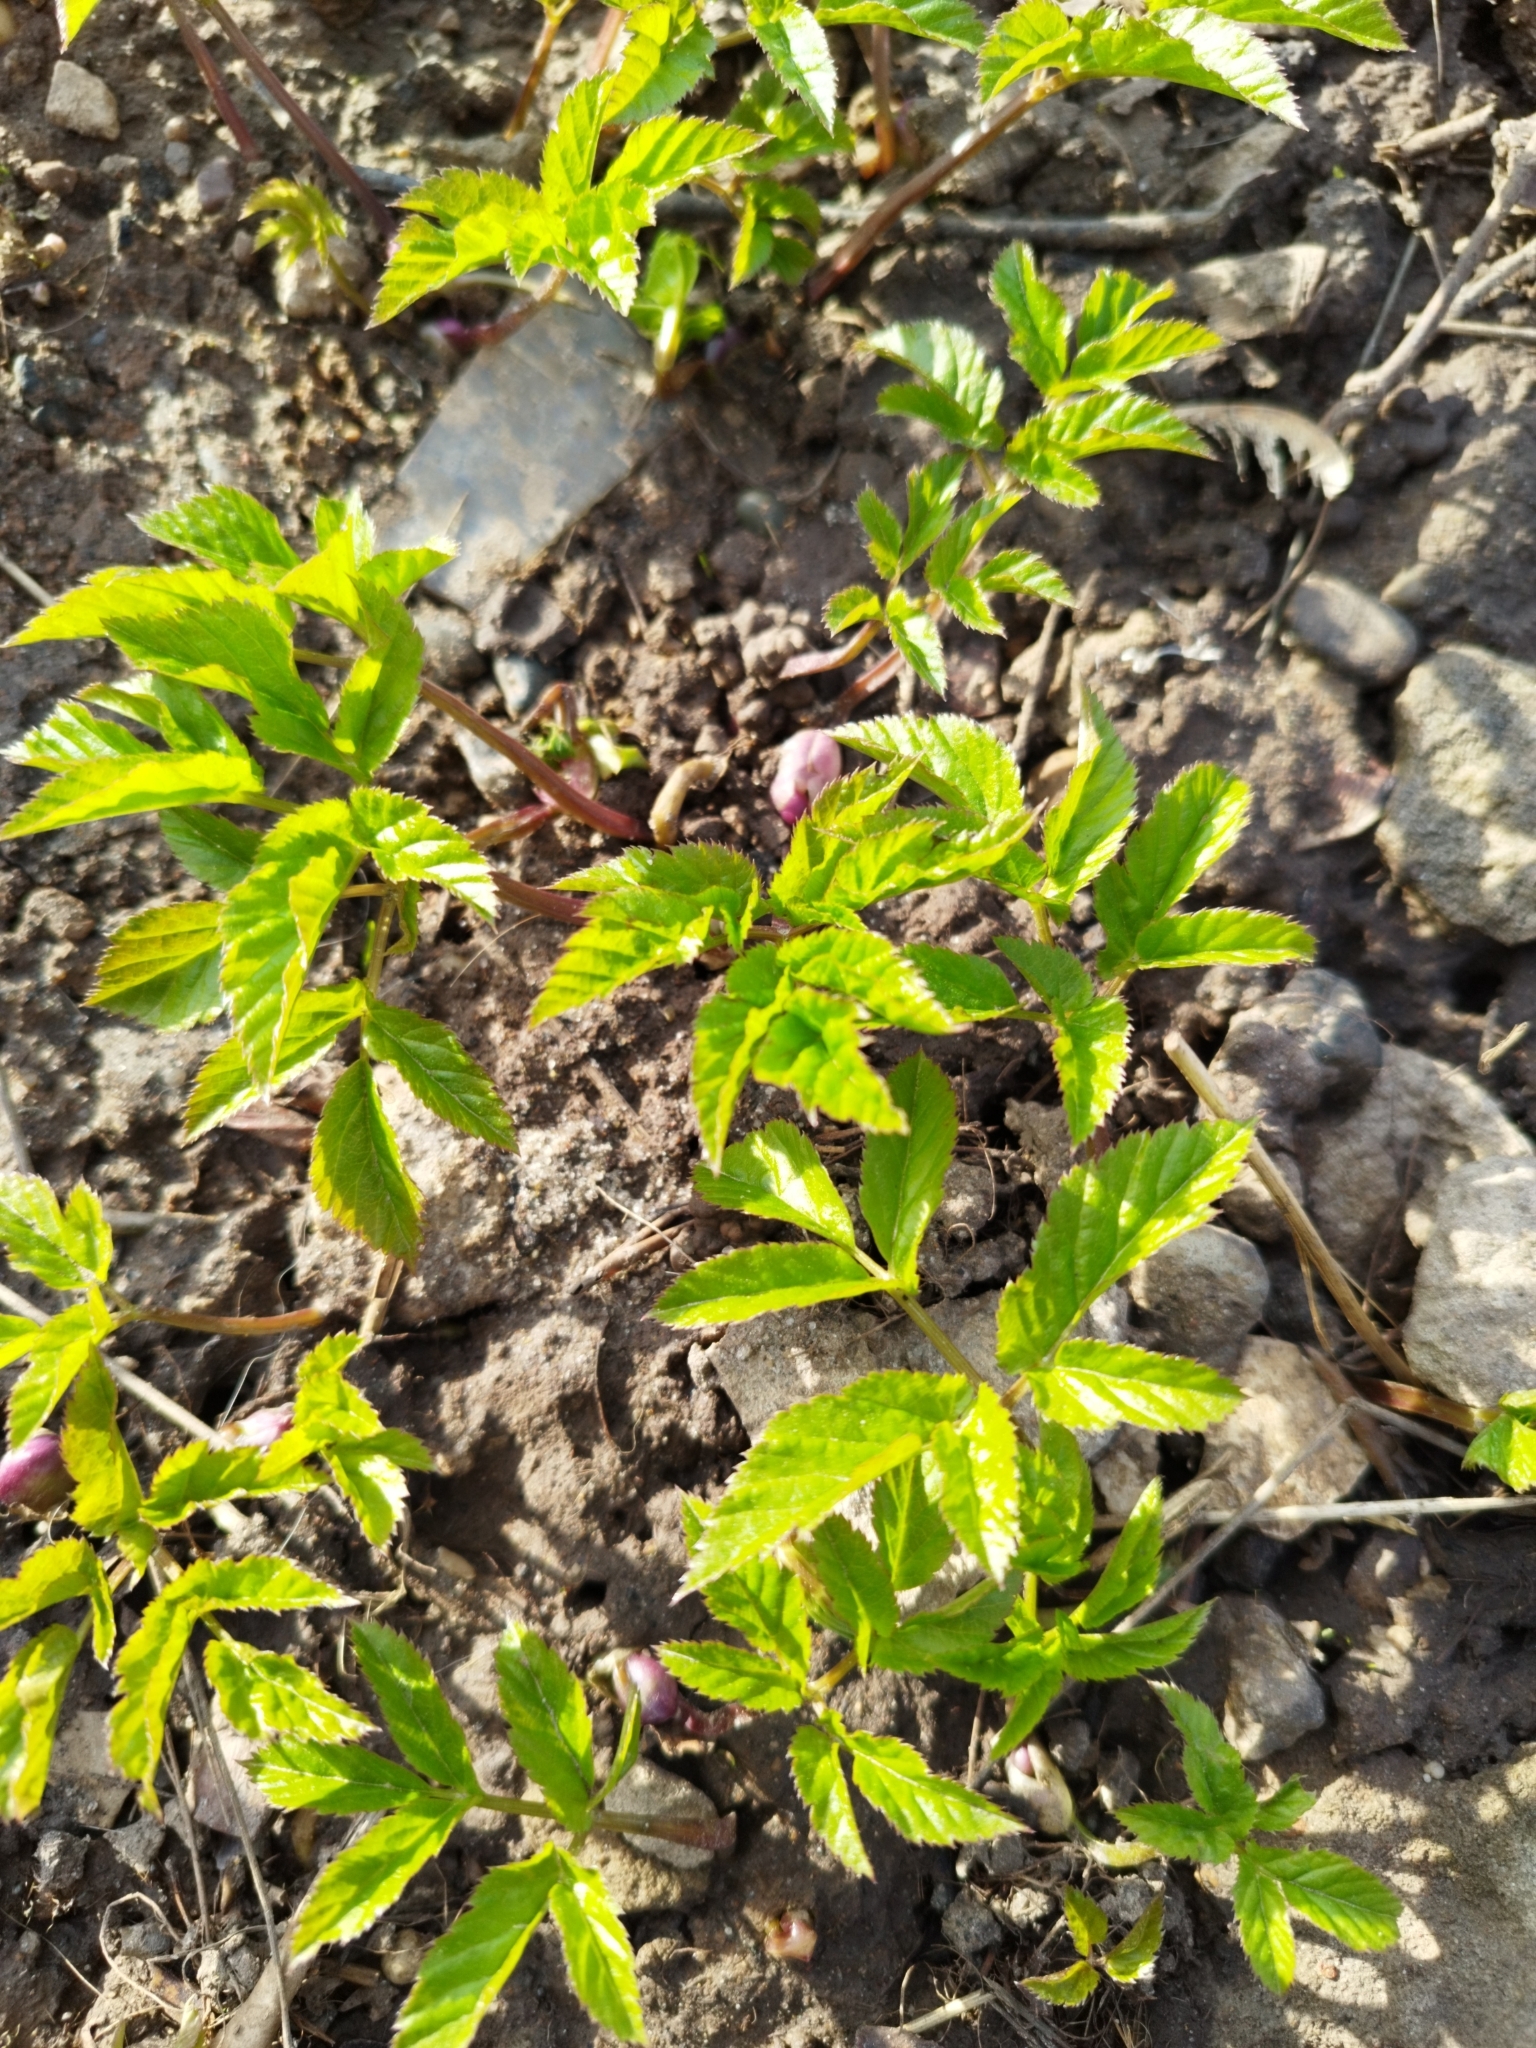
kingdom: Plantae
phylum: Tracheophyta
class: Magnoliopsida
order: Apiales
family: Apiaceae
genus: Aegopodium
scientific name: Aegopodium podagraria
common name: Ground-elder
